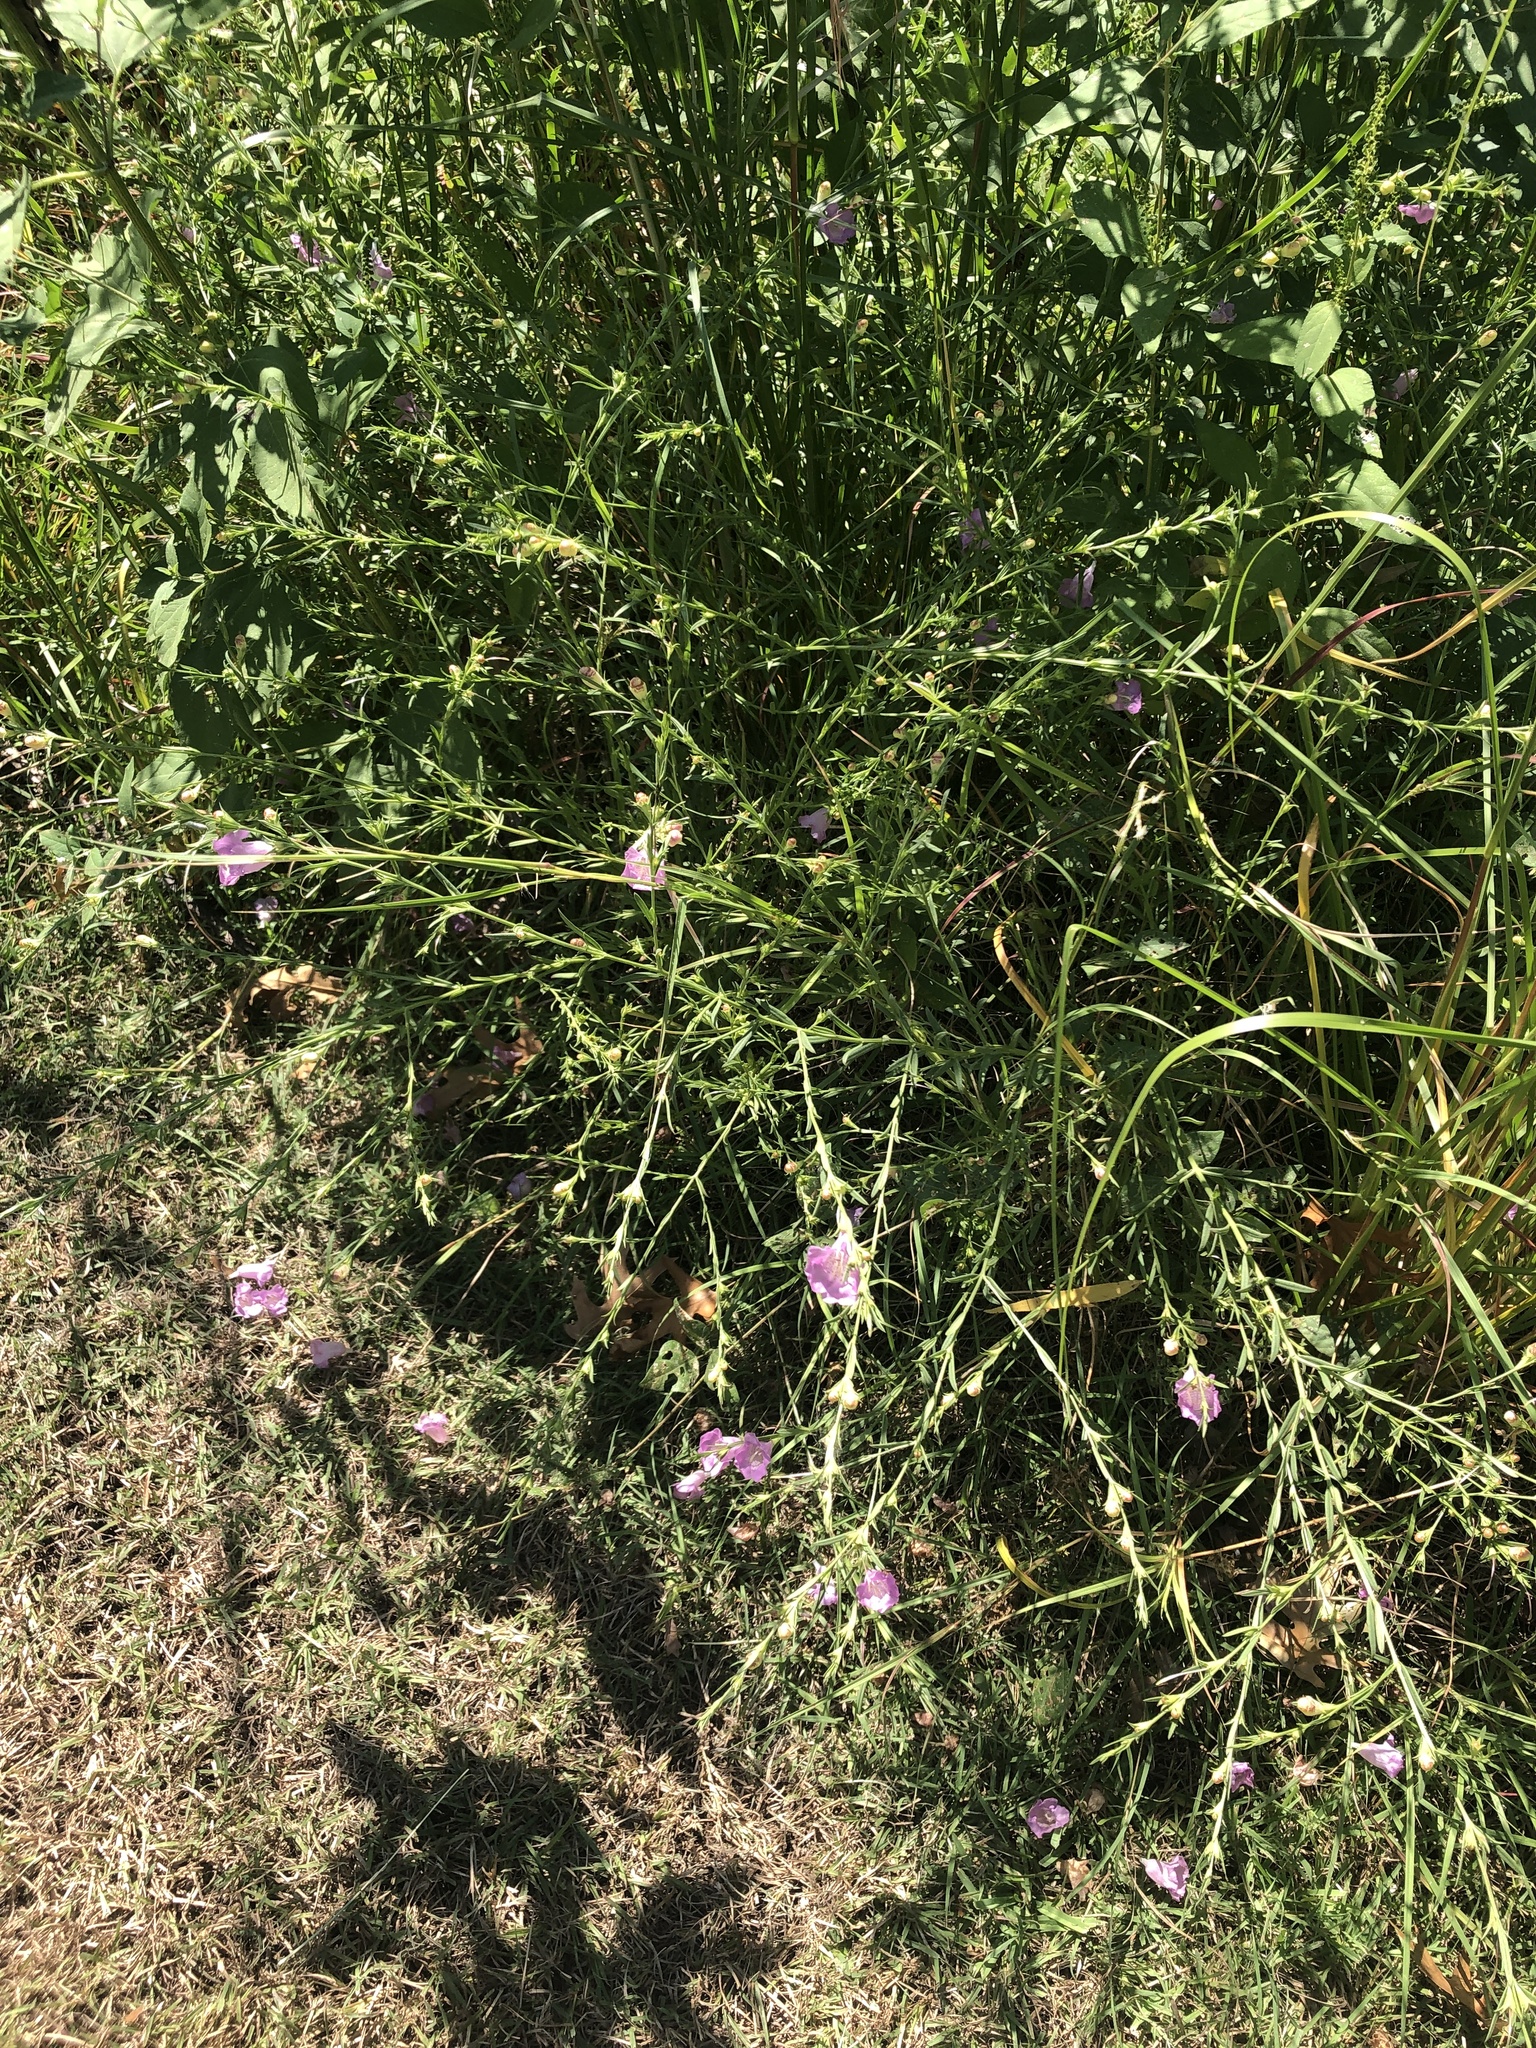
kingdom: Plantae
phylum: Tracheophyta
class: Magnoliopsida
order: Lamiales
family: Orobanchaceae
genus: Agalinis
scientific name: Agalinis heterophylla
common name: Prairie agalinis
